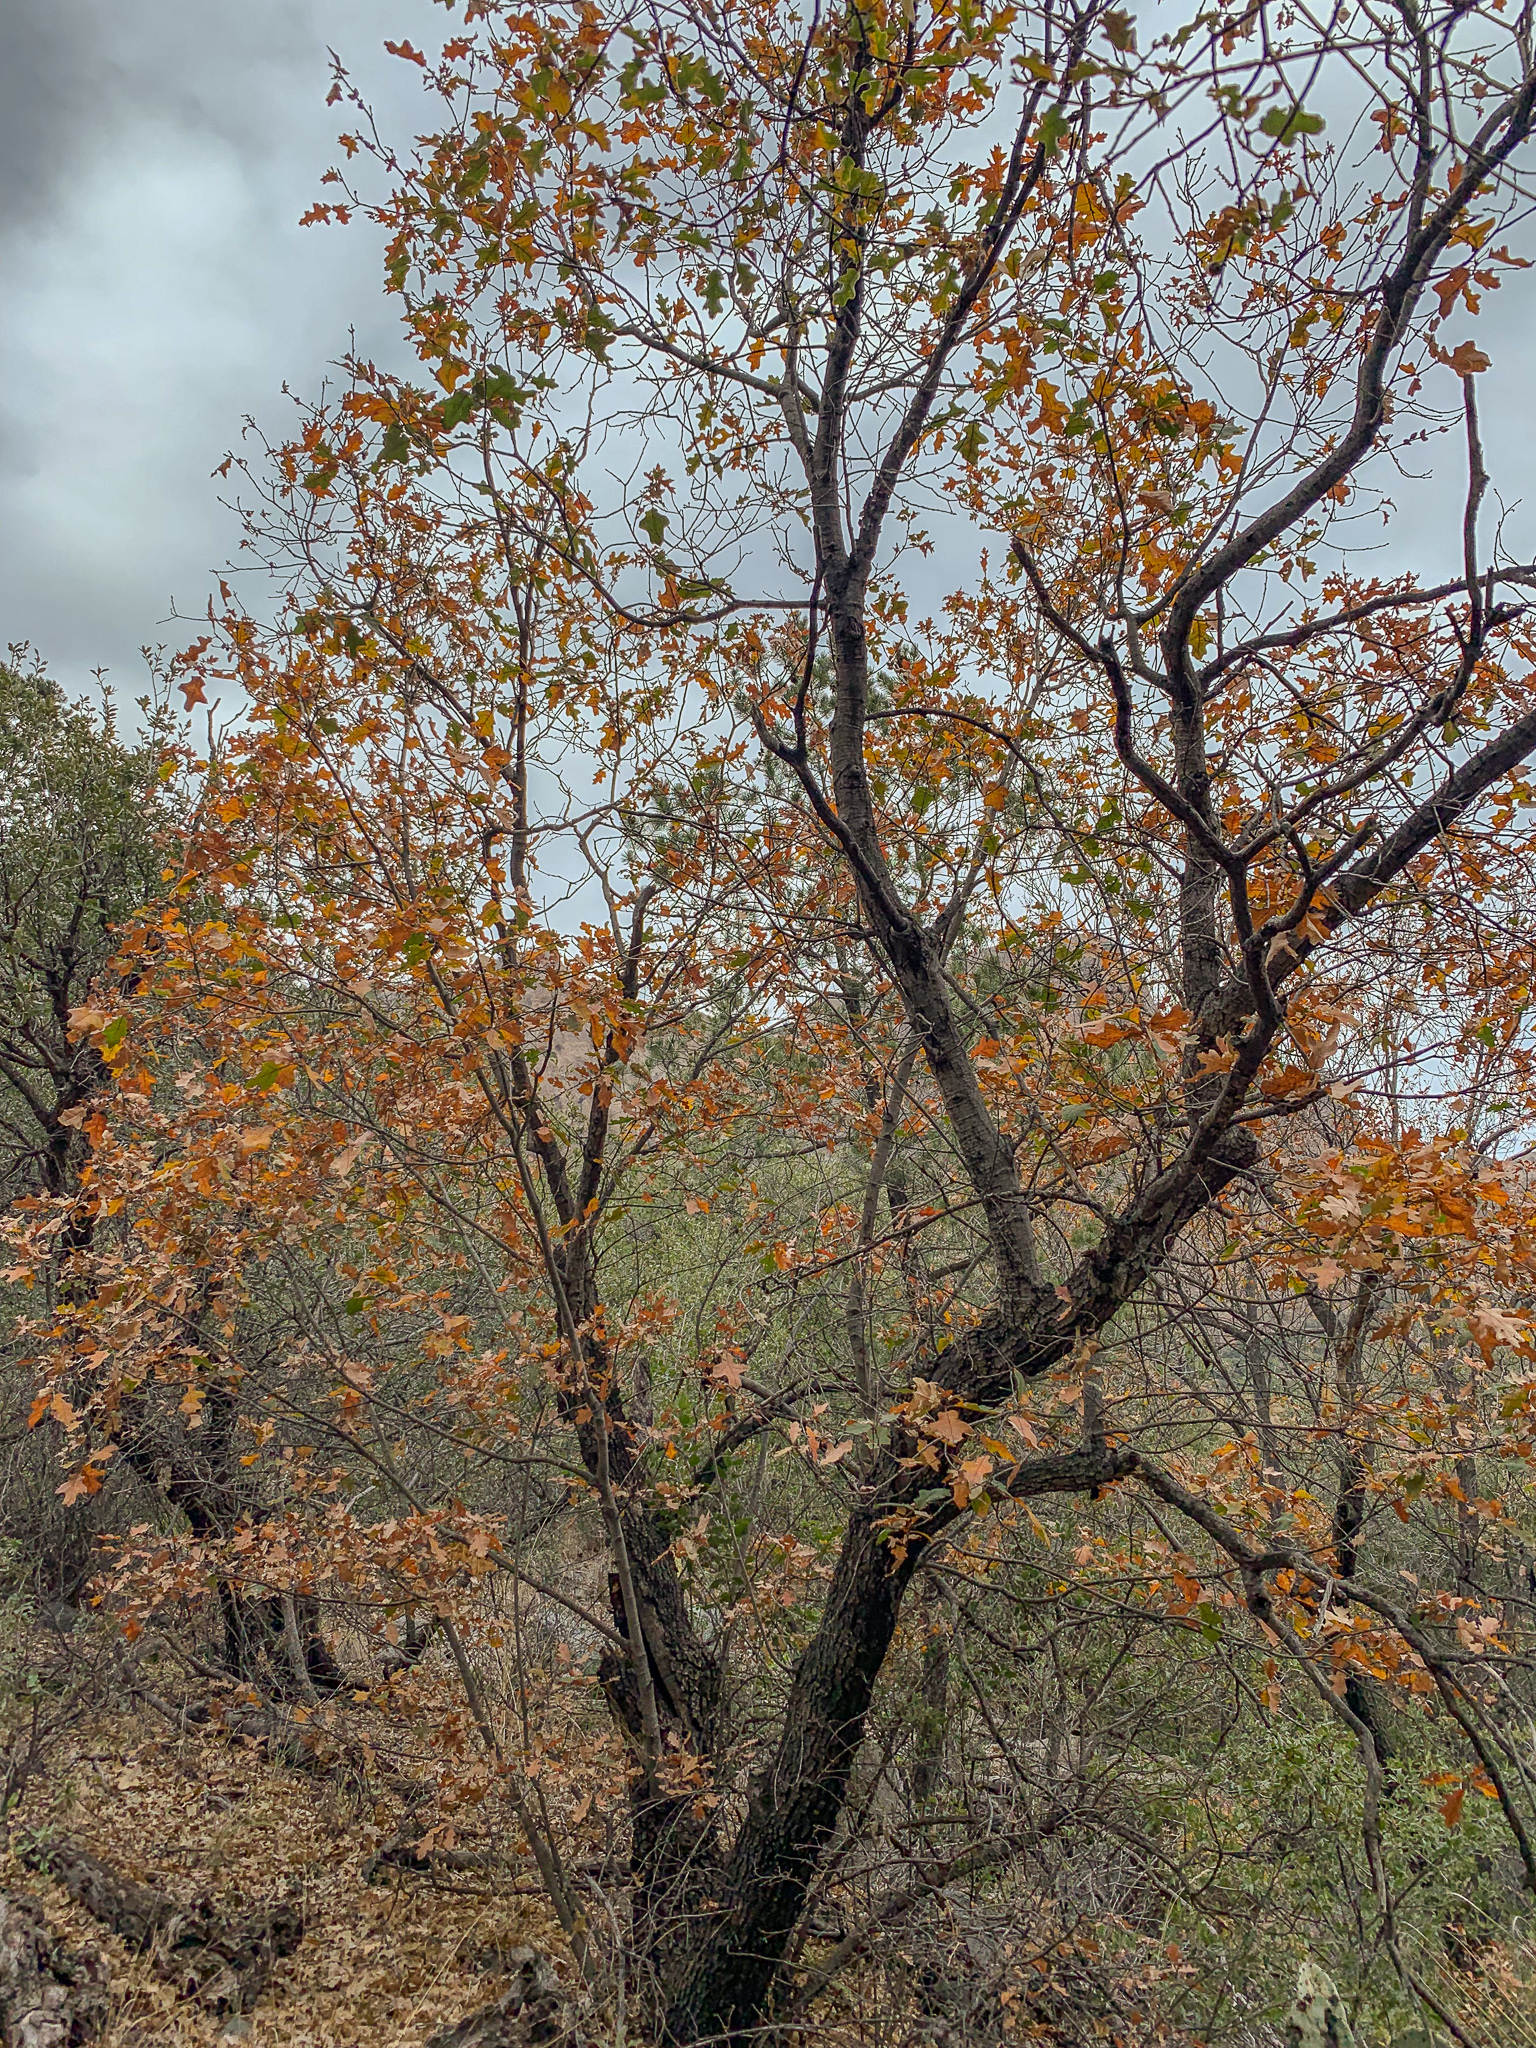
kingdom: Plantae
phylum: Tracheophyta
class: Magnoliopsida
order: Fagales
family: Fagaceae
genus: Quercus
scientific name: Quercus gravesii
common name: Chisos red oak
